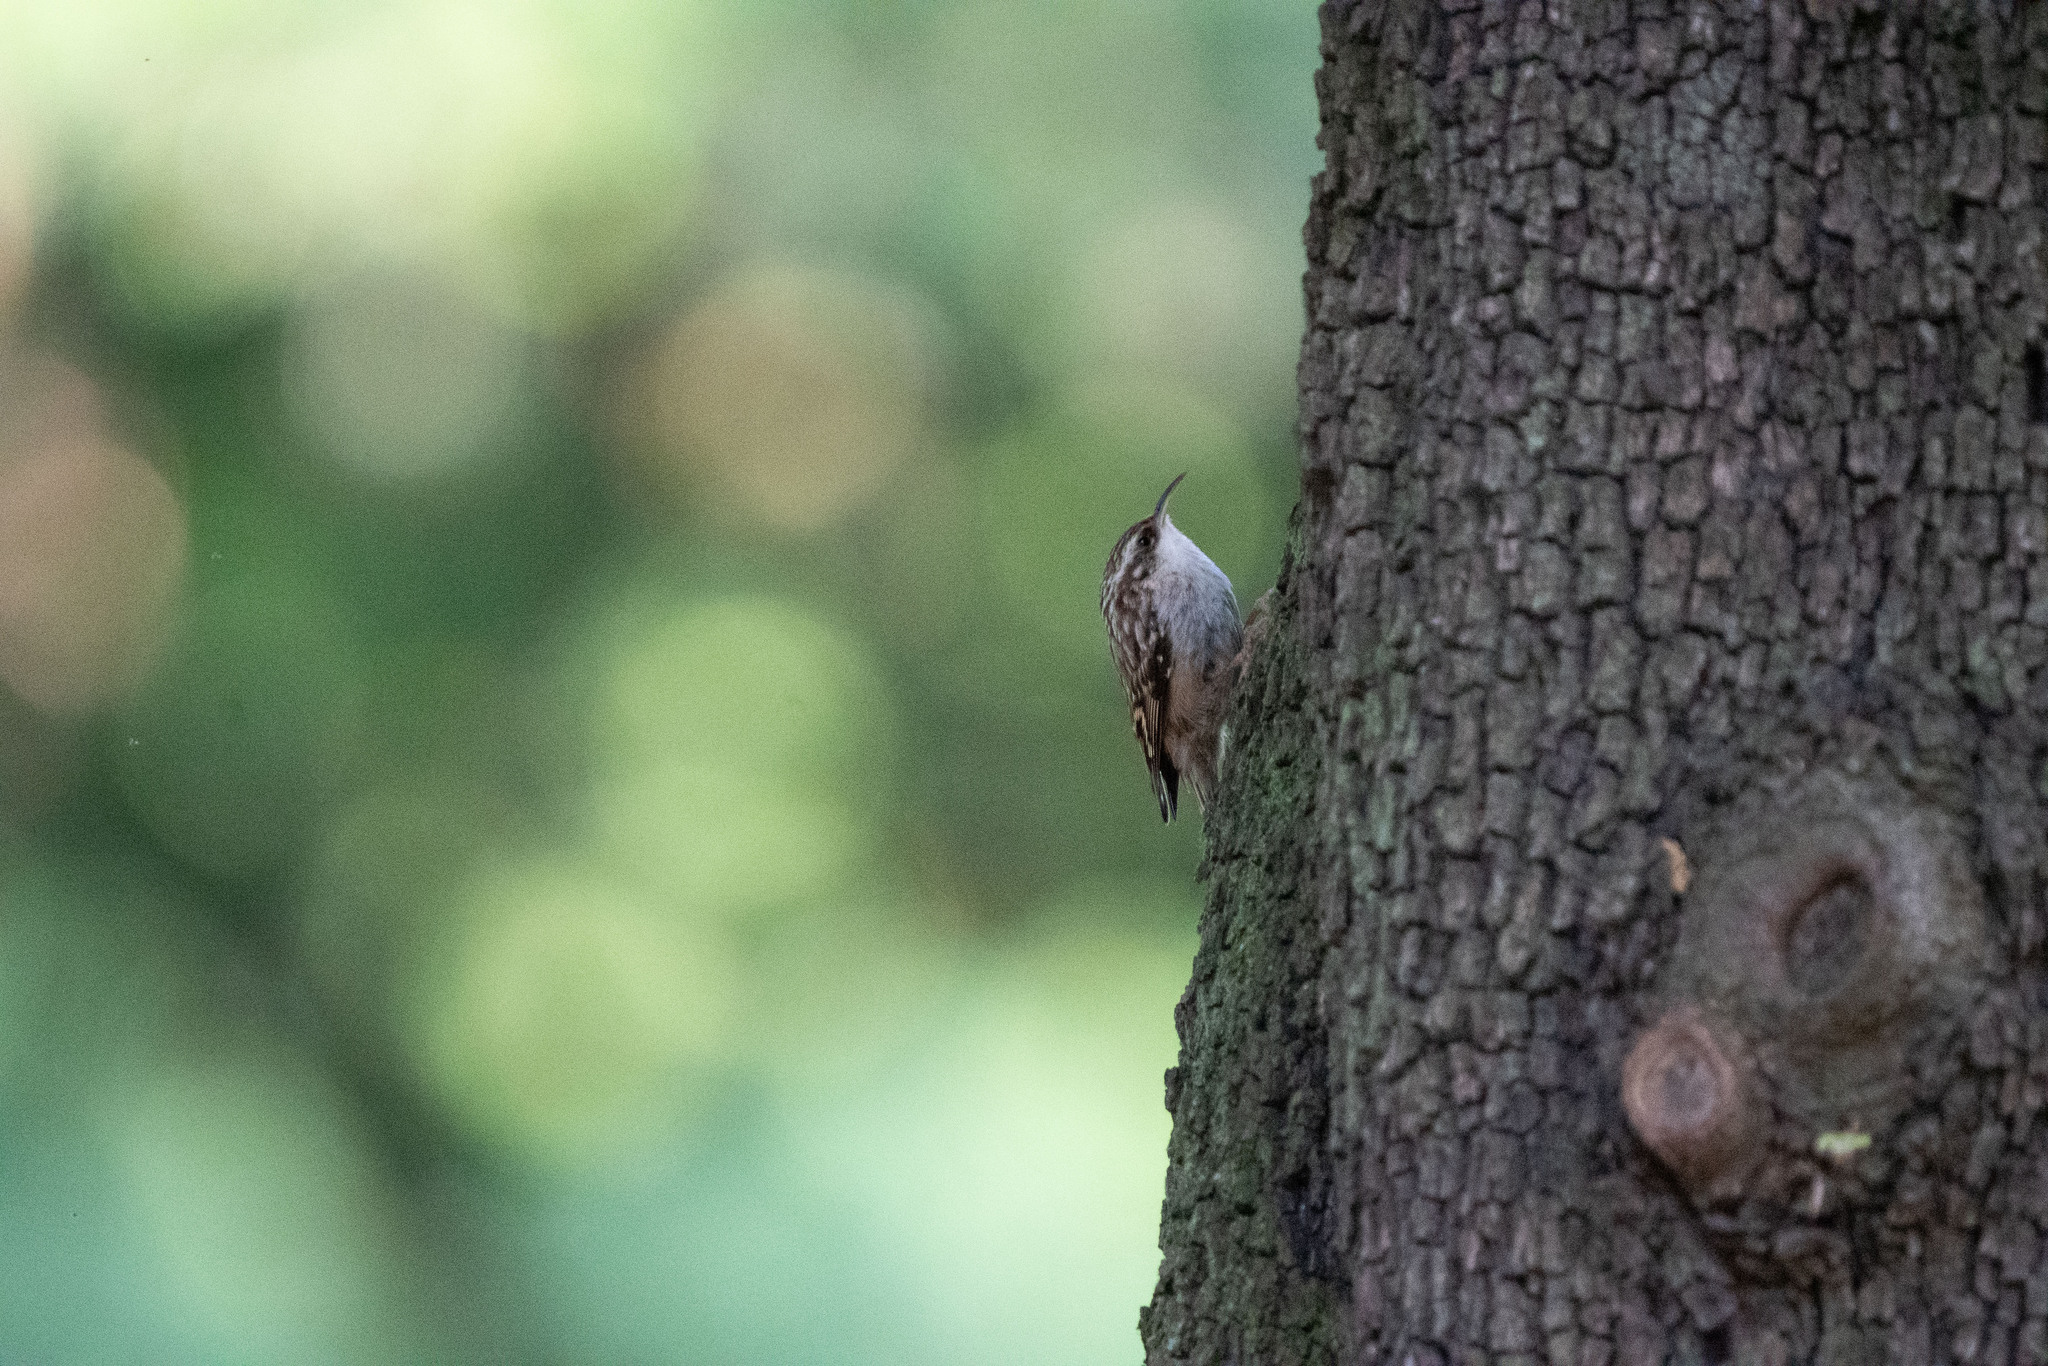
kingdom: Animalia
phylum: Chordata
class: Aves
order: Passeriformes
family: Certhiidae
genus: Certhia
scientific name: Certhia brachydactyla
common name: Short-toed treecreeper
